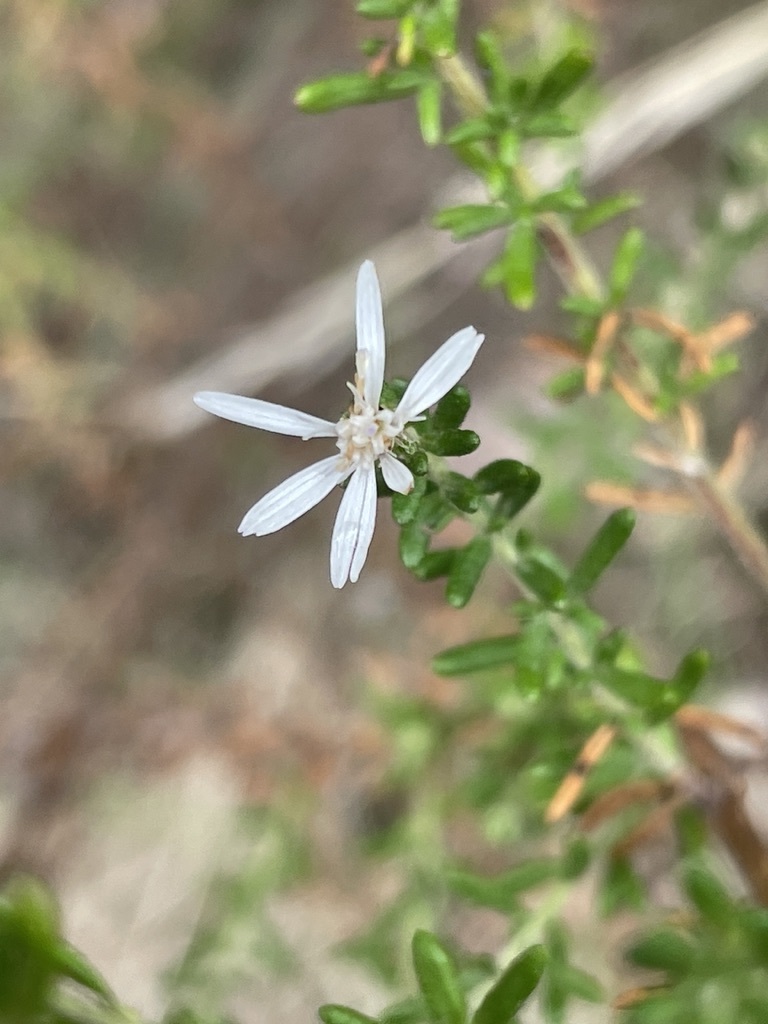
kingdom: Plantae
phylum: Tracheophyta
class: Magnoliopsida
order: Asterales
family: Asteraceae
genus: Olearia
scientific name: Olearia ramulosa
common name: Twiggy daisybush
